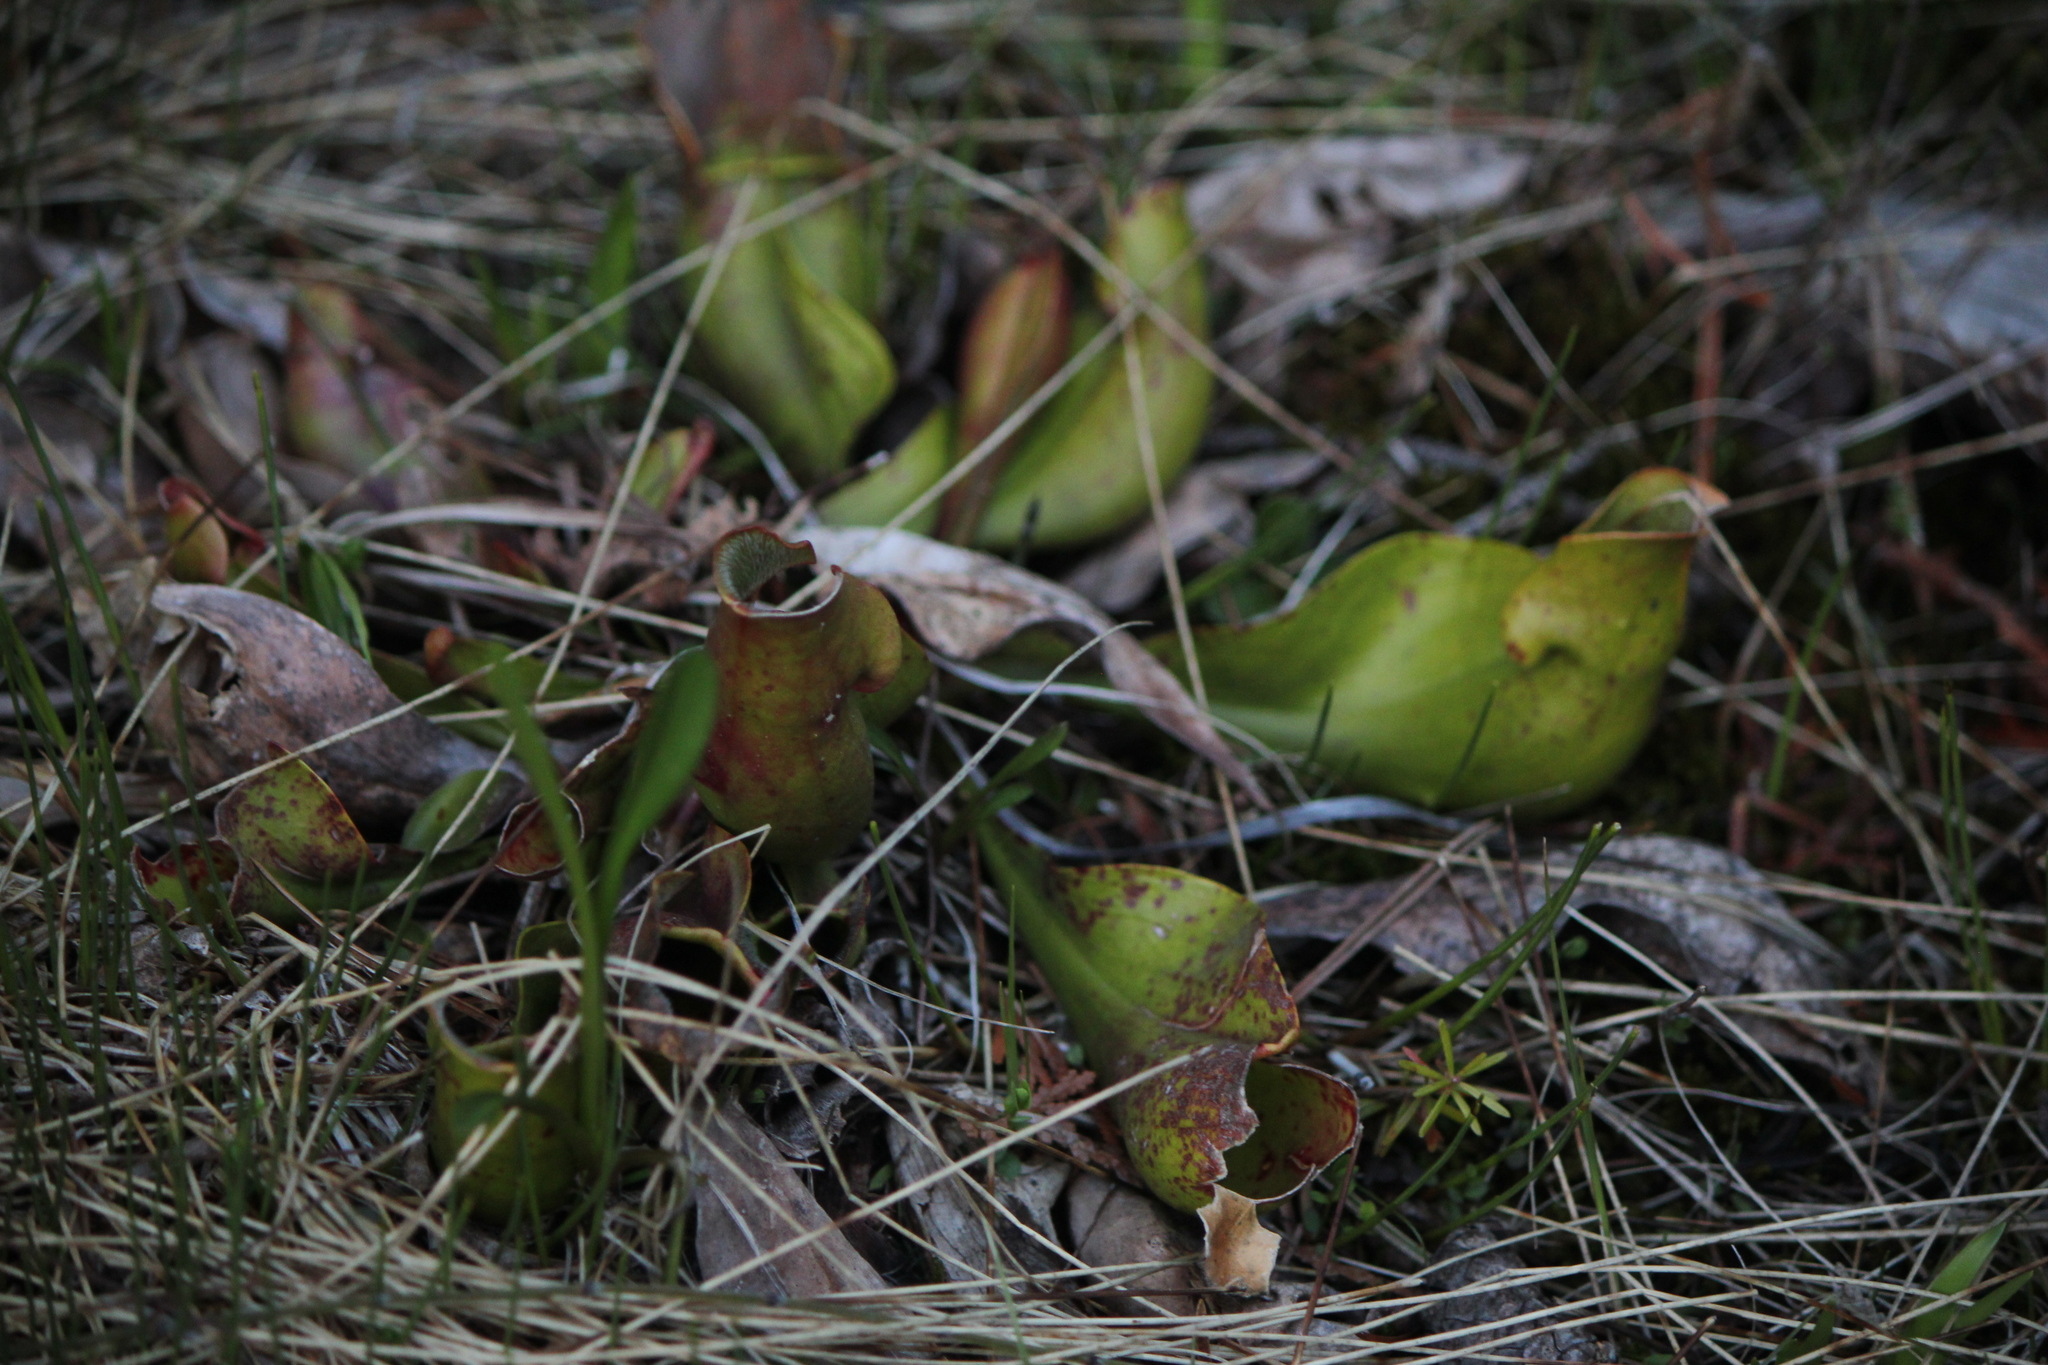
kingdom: Plantae
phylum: Tracheophyta
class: Magnoliopsida
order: Ericales
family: Sarraceniaceae
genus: Sarracenia
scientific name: Sarracenia purpurea
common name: Pitcherplant
